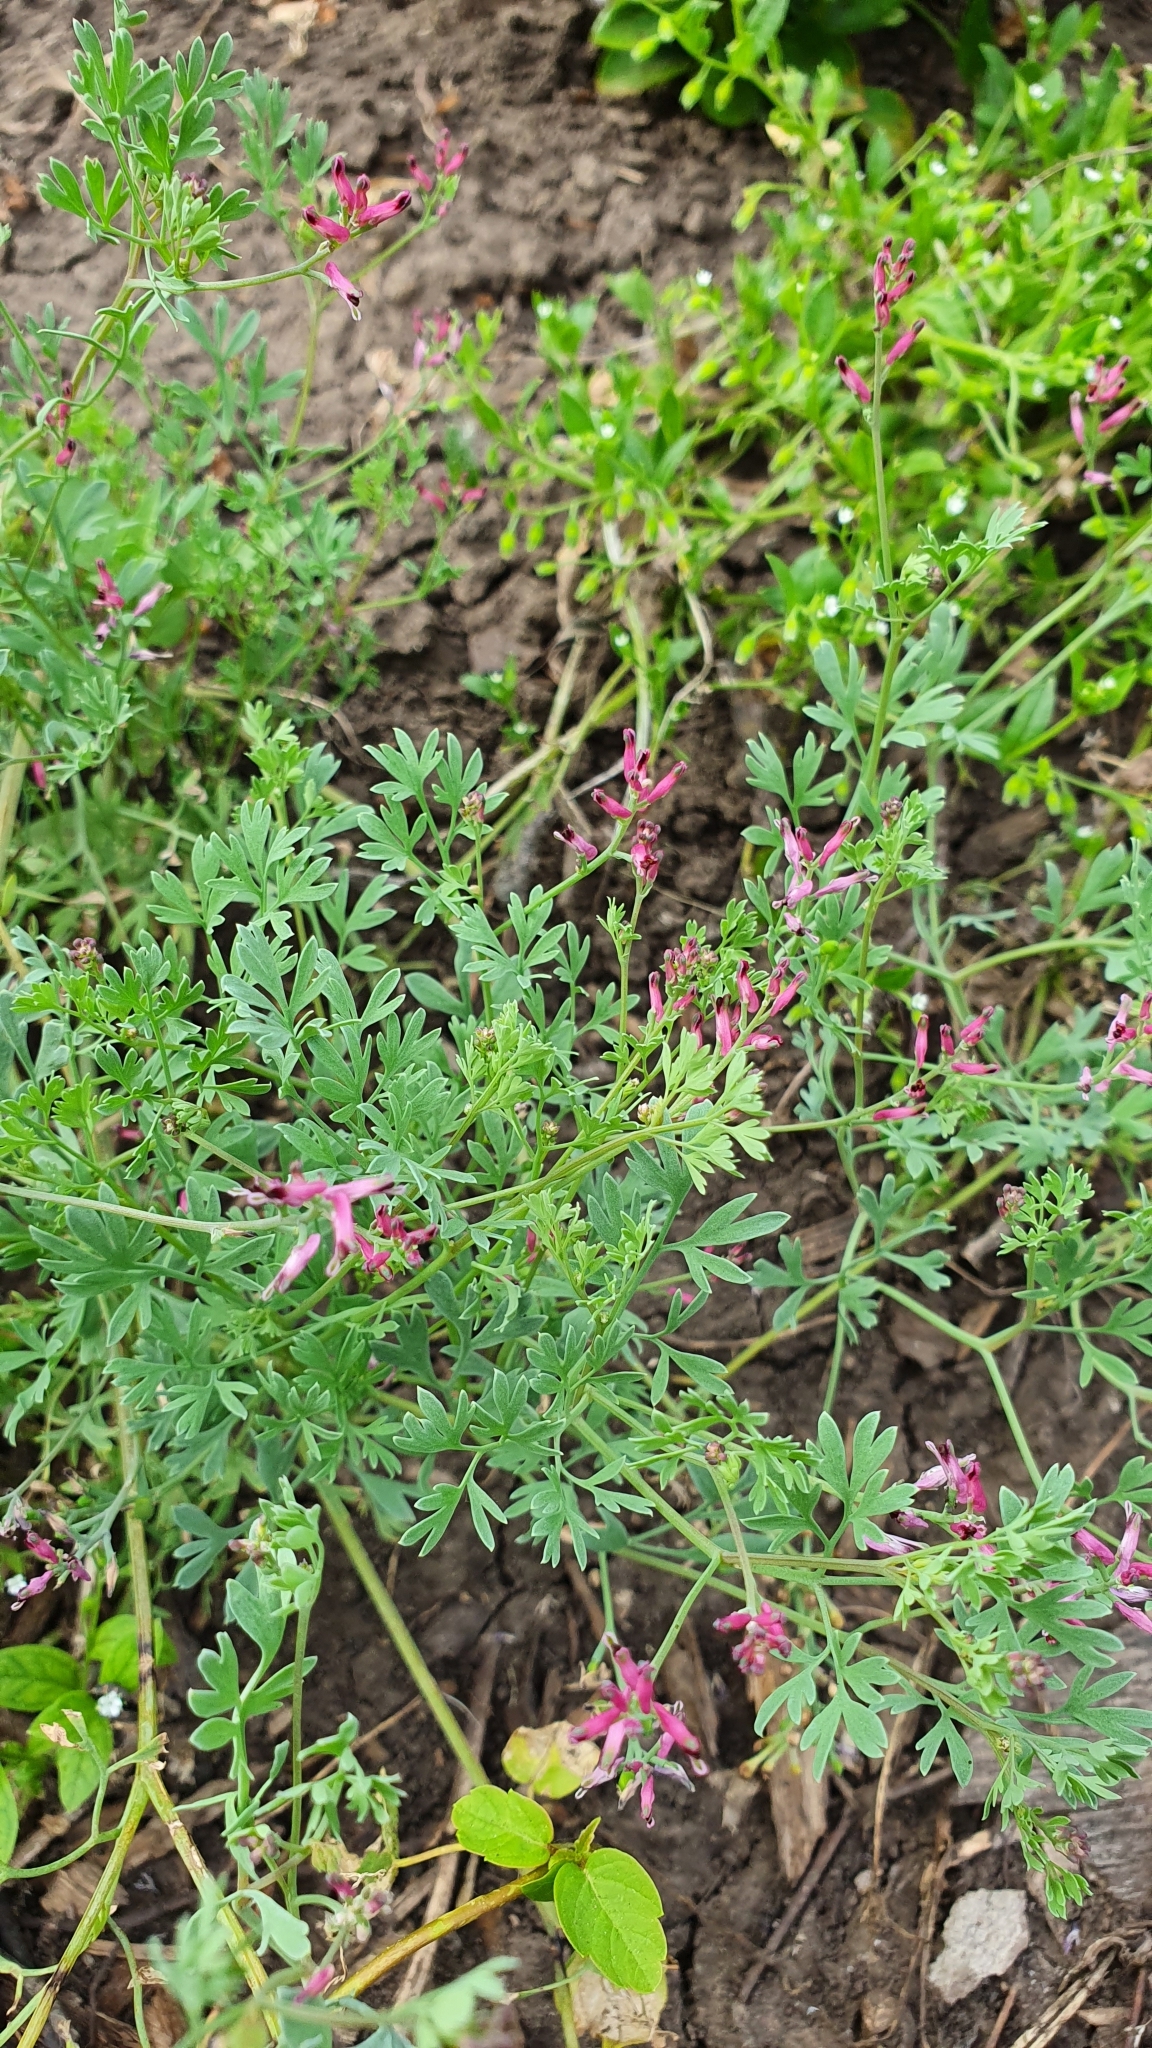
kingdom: Plantae
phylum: Tracheophyta
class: Magnoliopsida
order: Ranunculales
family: Papaveraceae
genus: Fumaria
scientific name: Fumaria officinalis
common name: Common fumitory
